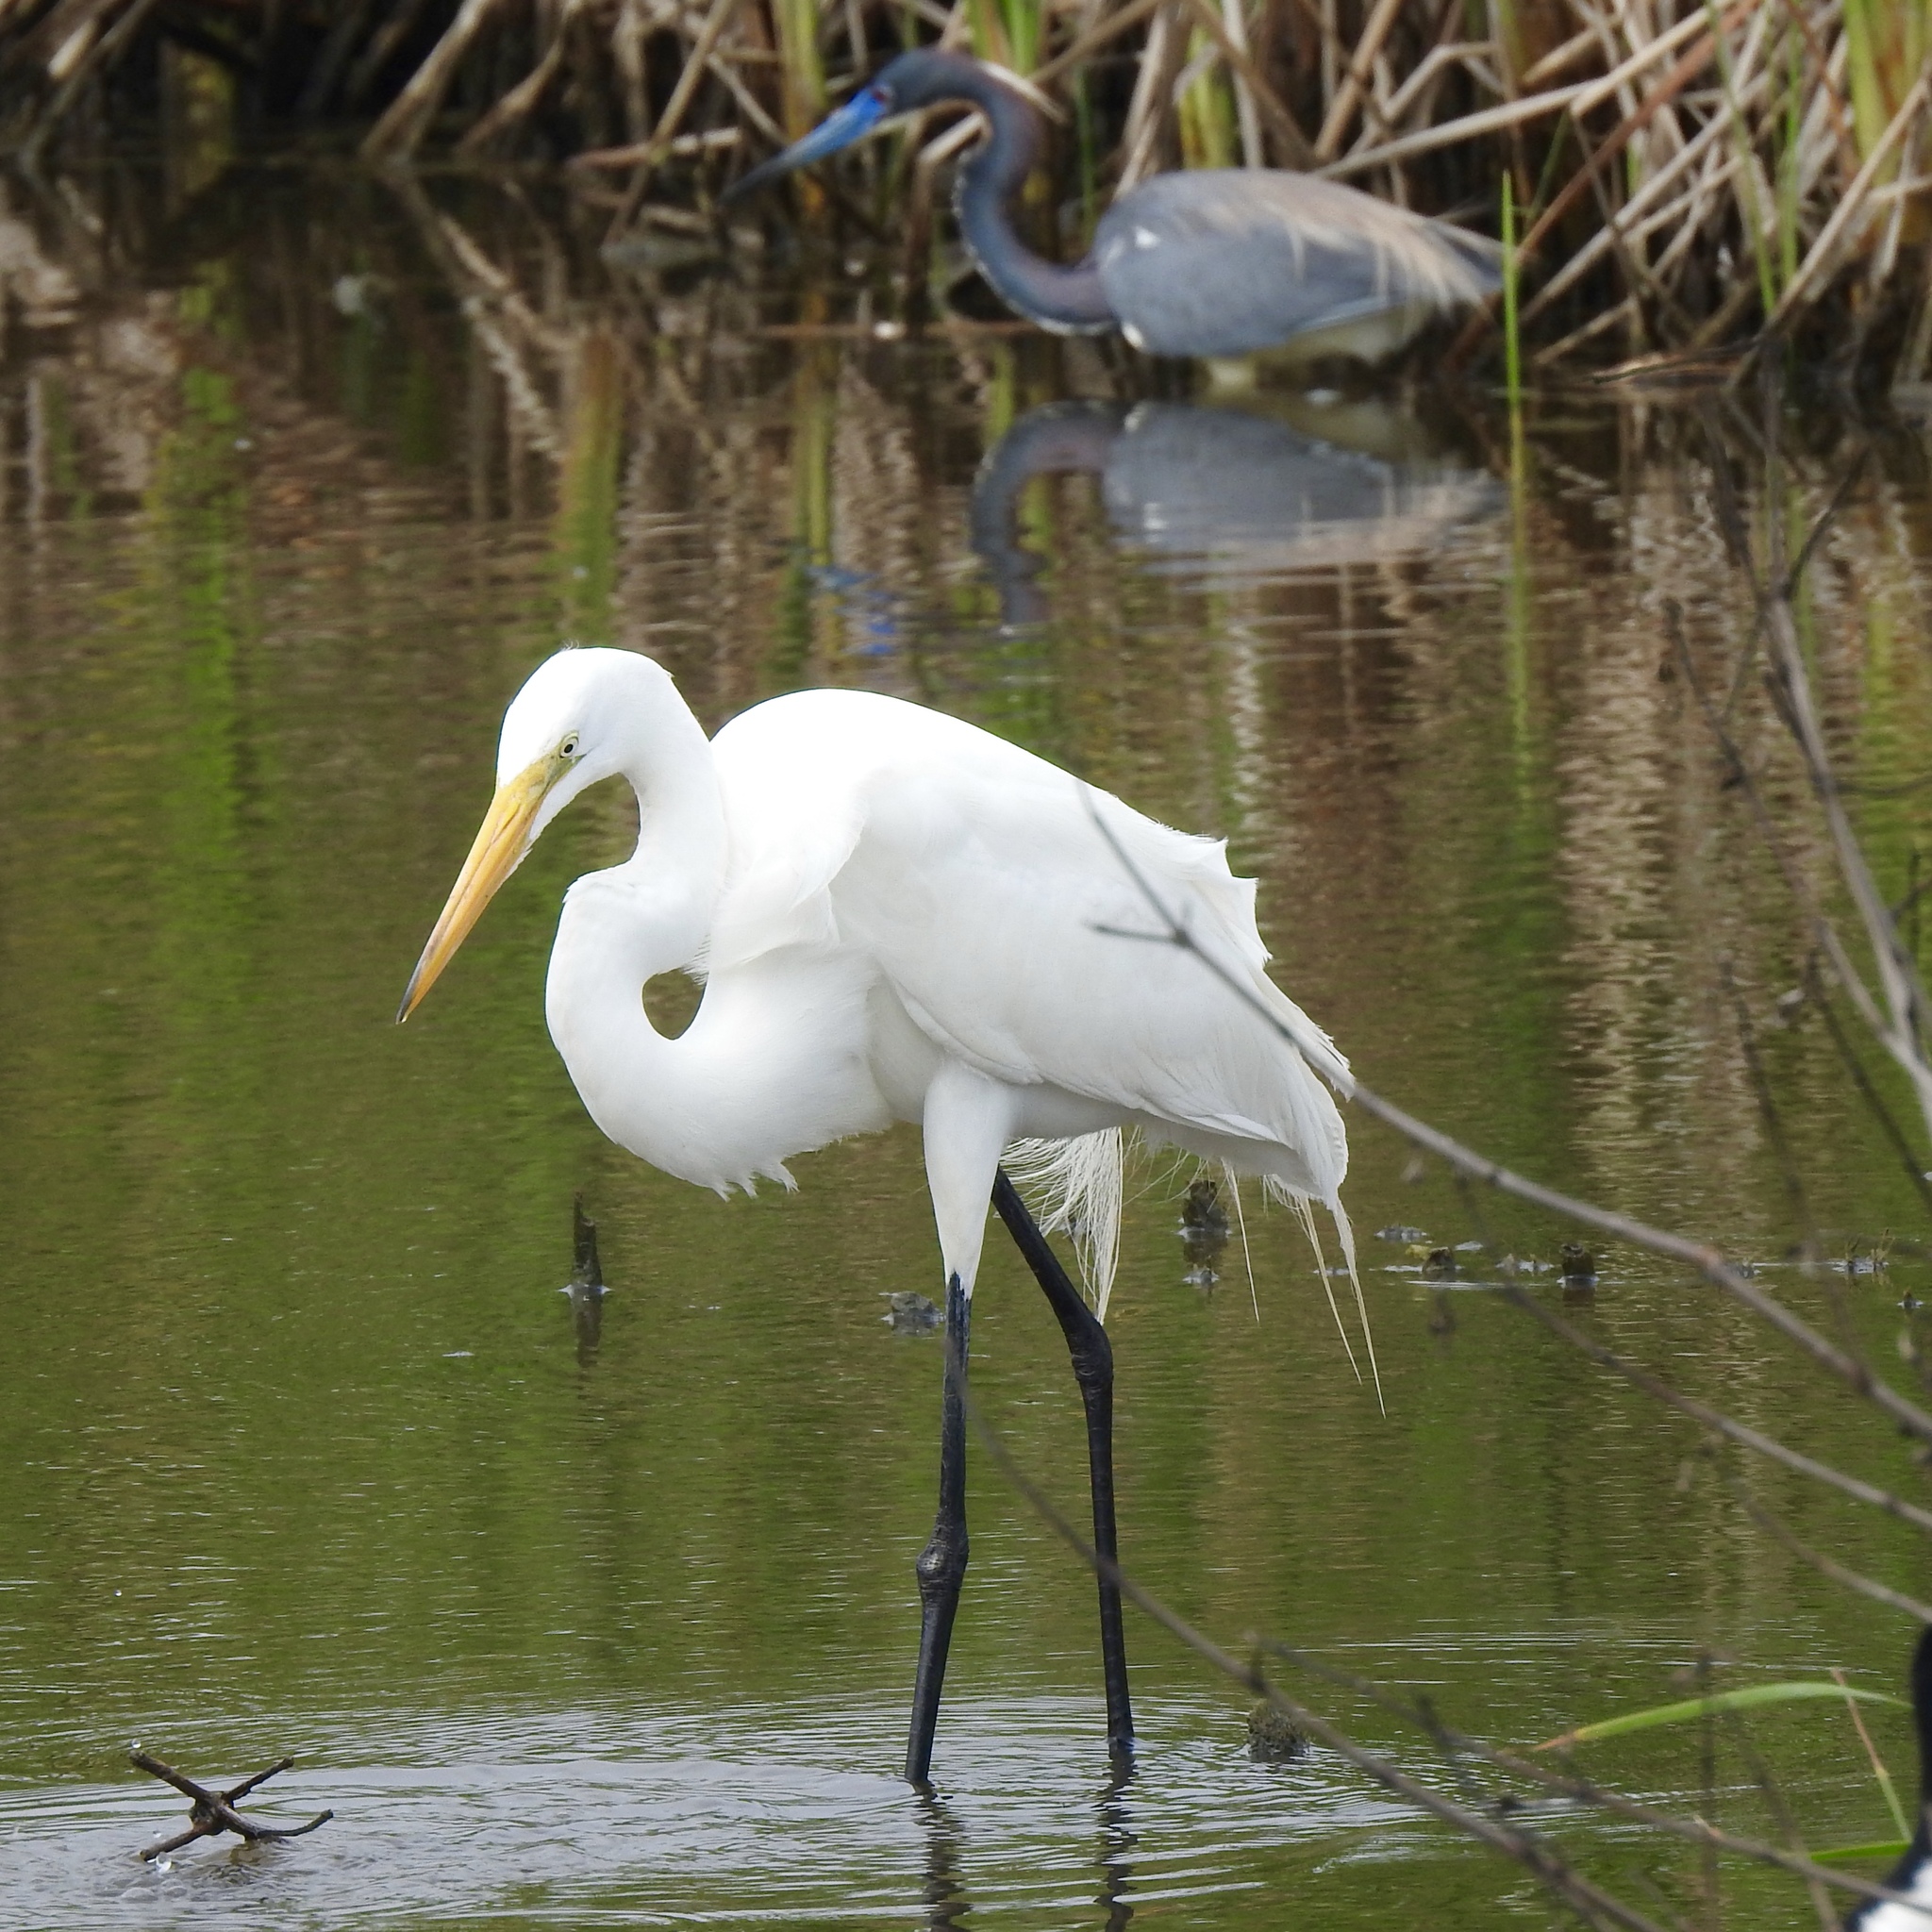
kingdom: Animalia
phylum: Chordata
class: Aves
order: Pelecaniformes
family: Ardeidae
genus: Ardea
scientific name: Ardea alba
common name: Great egret
